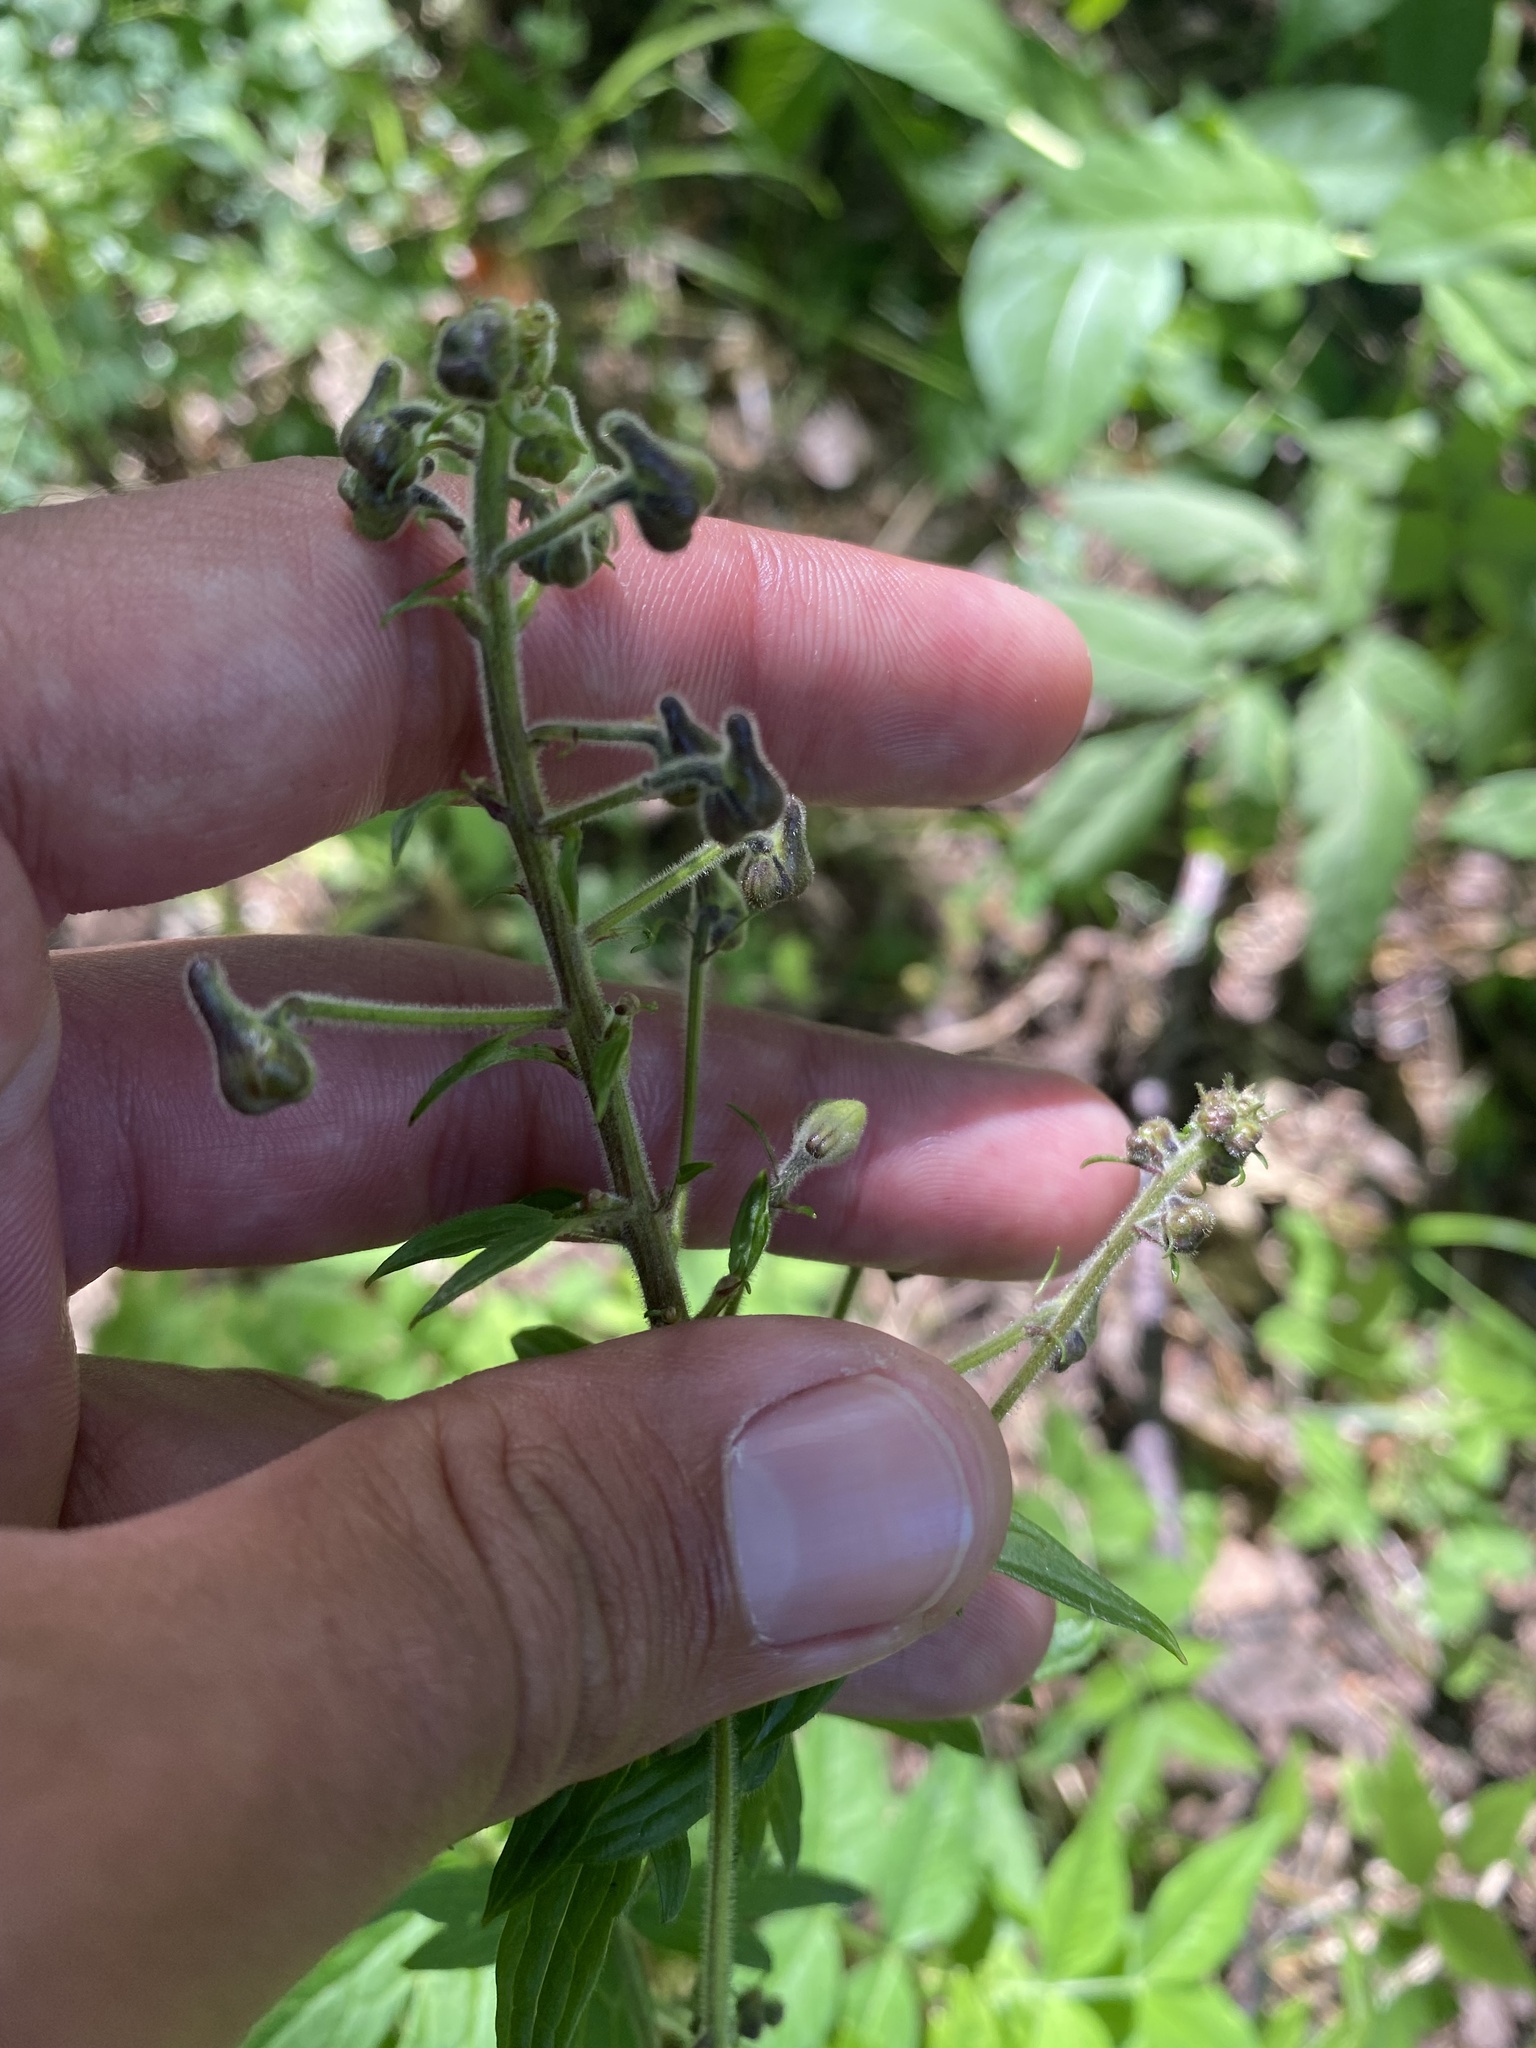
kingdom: Plantae
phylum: Tracheophyta
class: Magnoliopsida
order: Ranunculales
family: Ranunculaceae
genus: Aconitum
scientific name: Aconitum septentrionale
